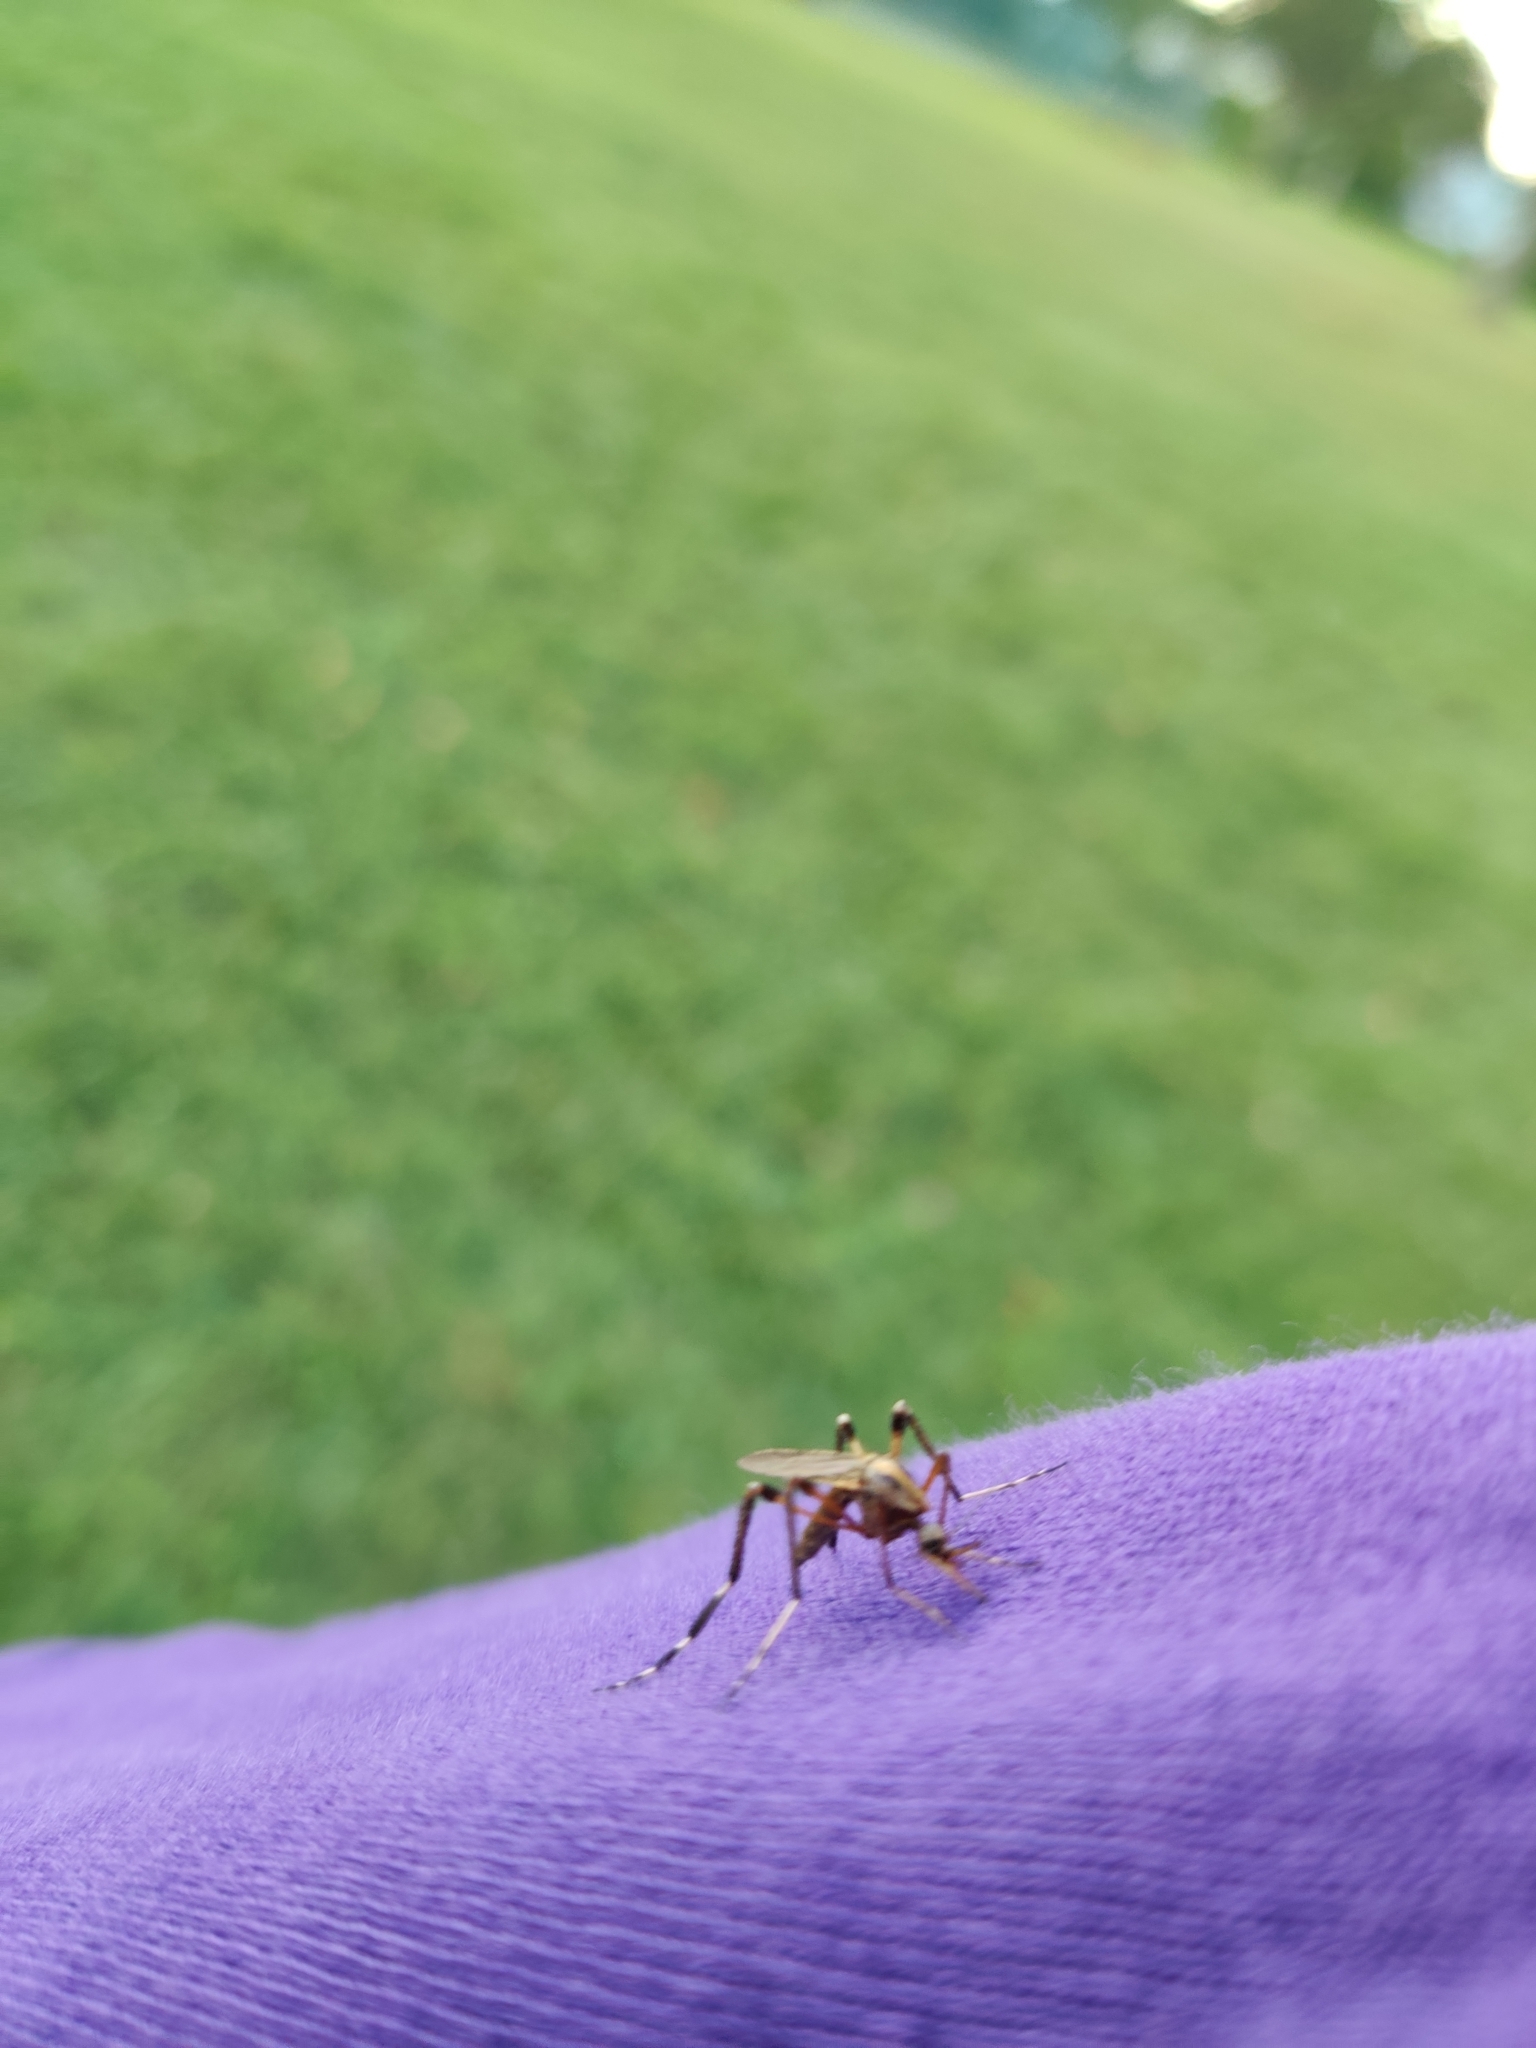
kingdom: Animalia
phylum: Arthropoda
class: Insecta
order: Diptera
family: Culicidae
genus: Psorophora
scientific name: Psorophora ciliata
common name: Gallinipper
